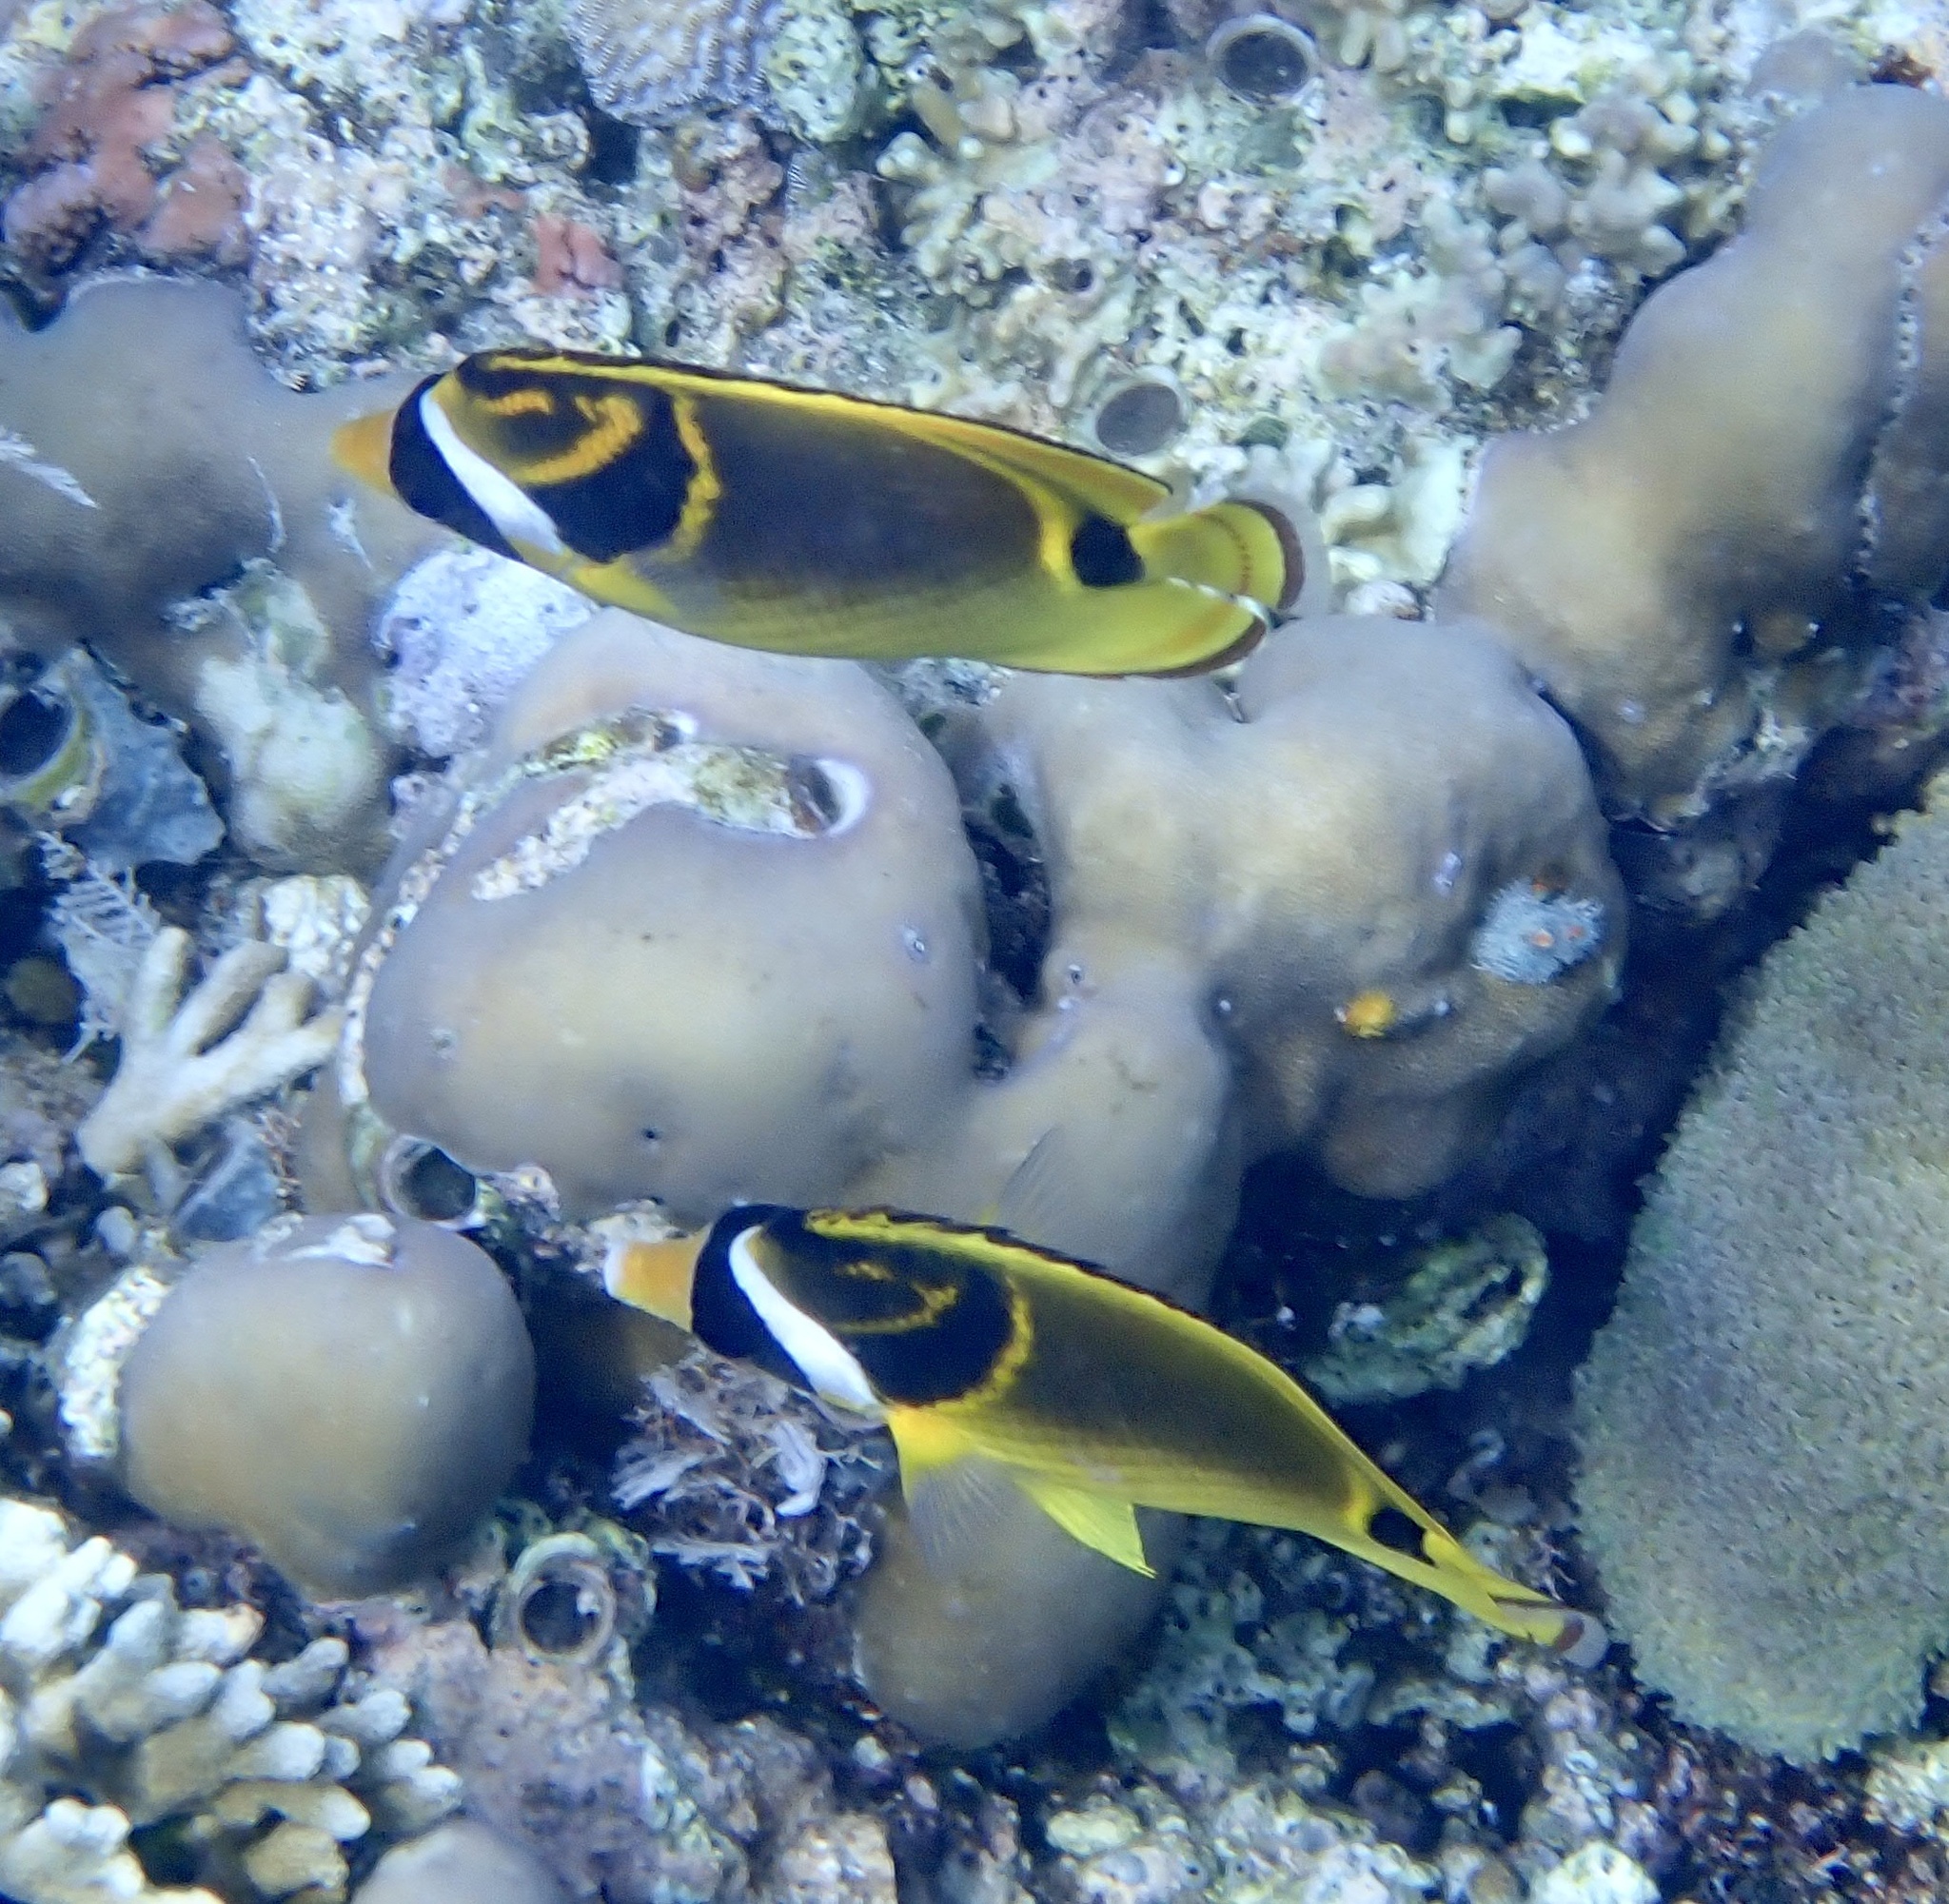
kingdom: Animalia
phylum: Chordata
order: Perciformes
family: Chaetodontidae
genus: Chaetodon
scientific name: Chaetodon lunula
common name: Raccoon butterflyfish
